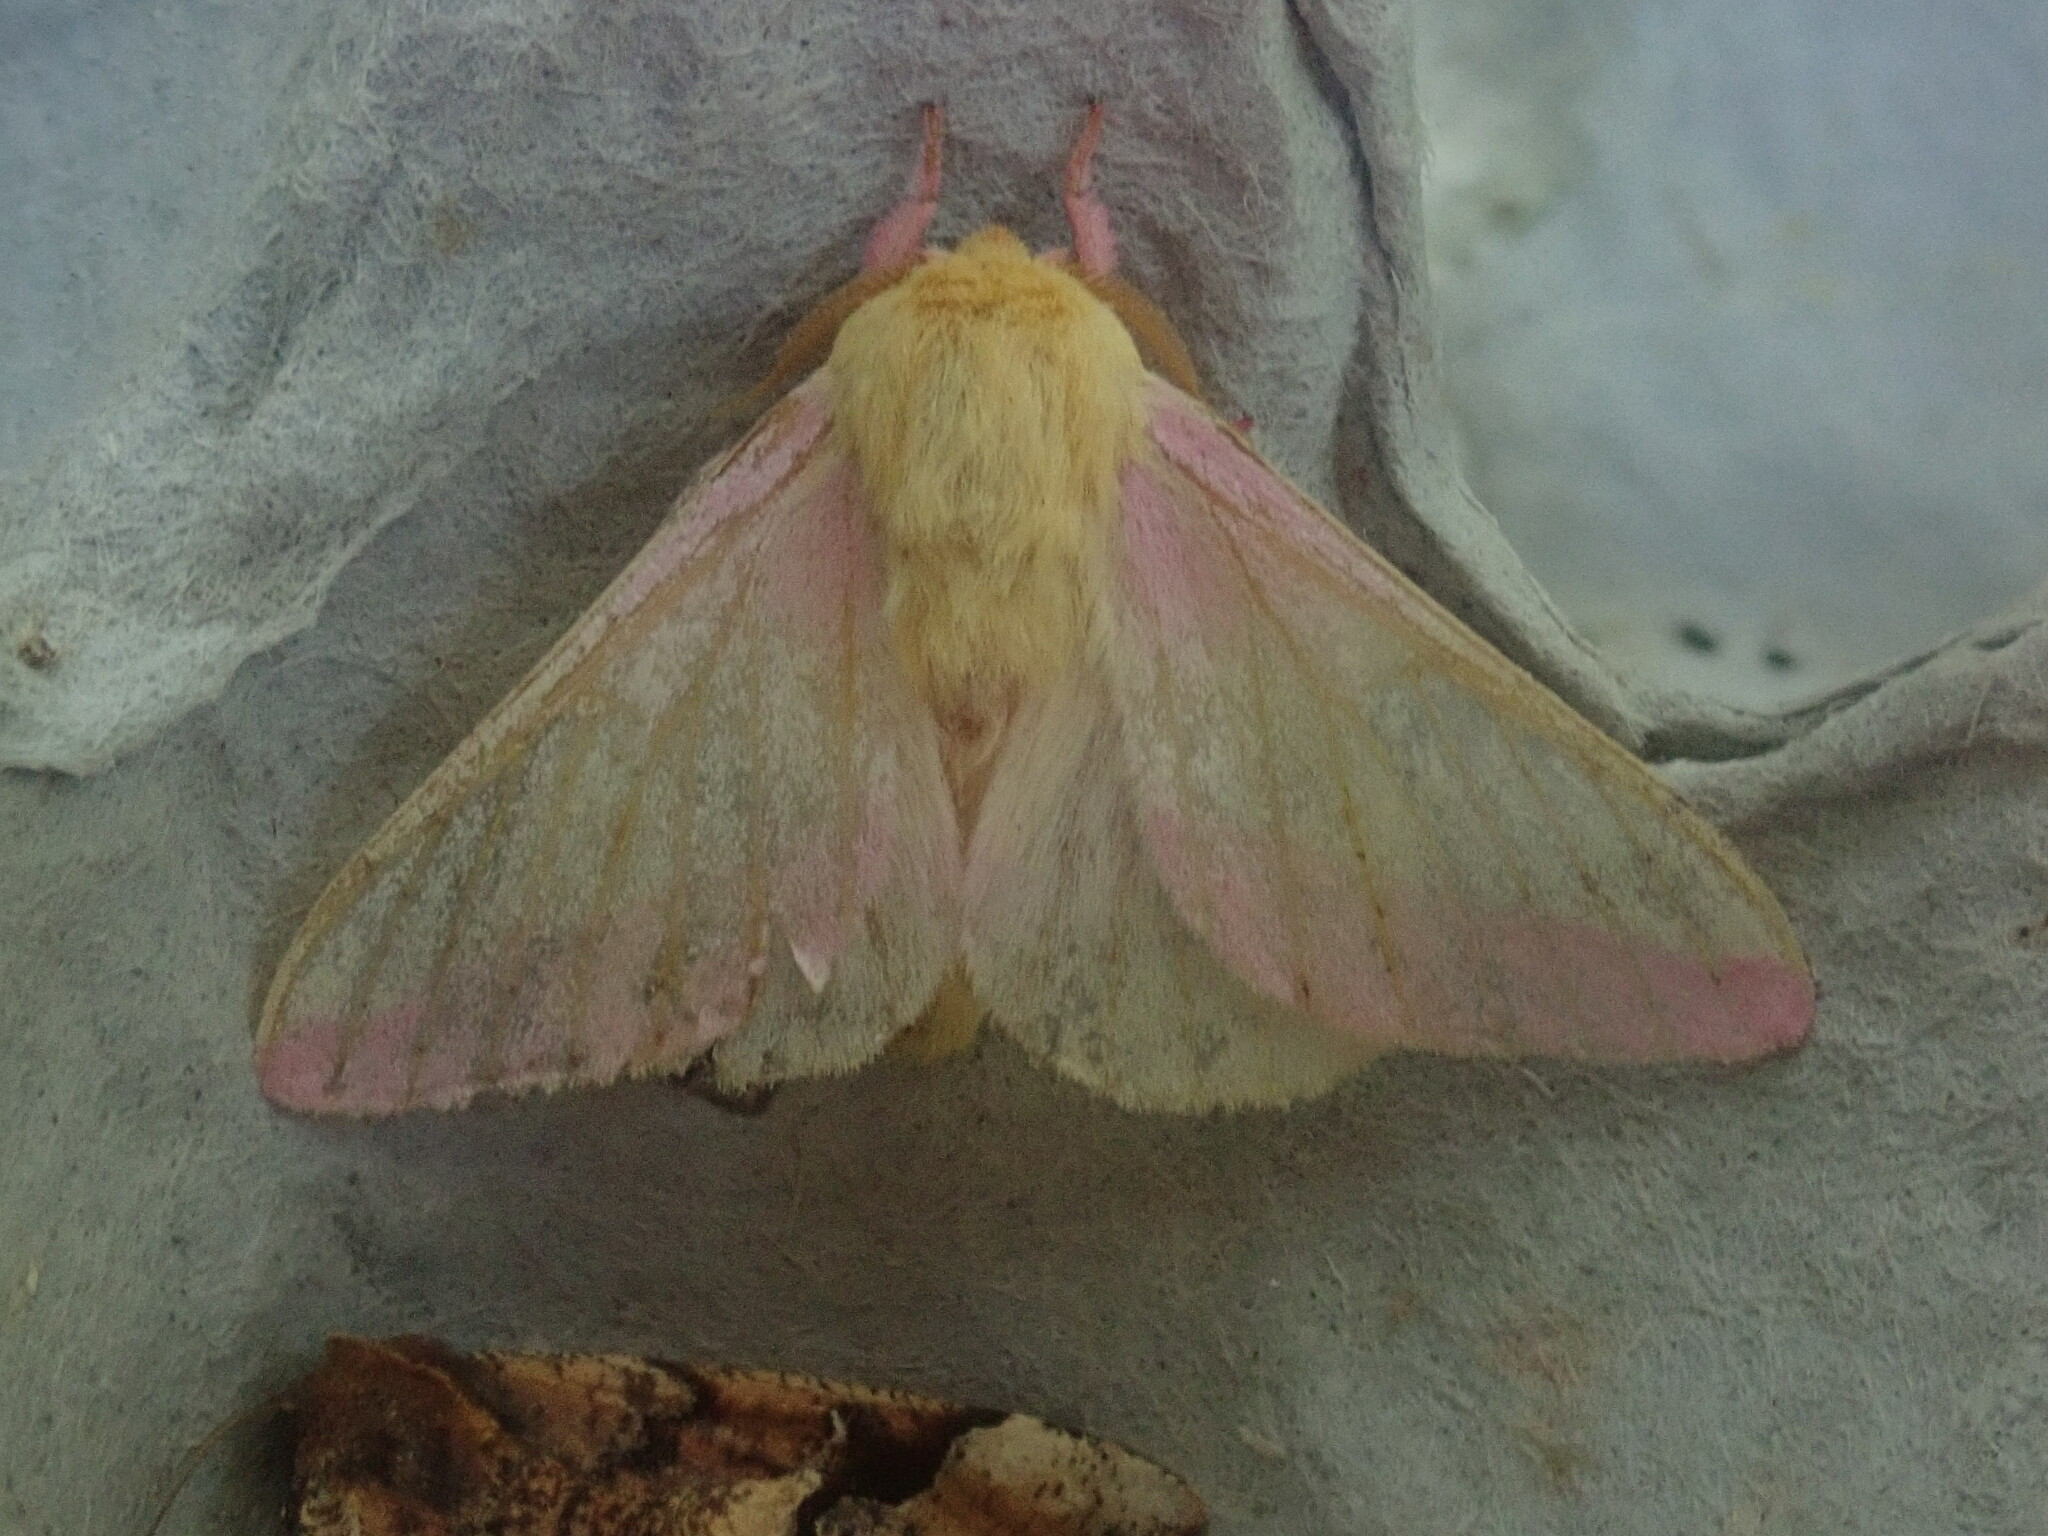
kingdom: Animalia
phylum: Arthropoda
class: Insecta
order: Lepidoptera
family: Saturniidae
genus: Dryocampa
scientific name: Dryocampa rubicunda
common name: Rosy maple moth
